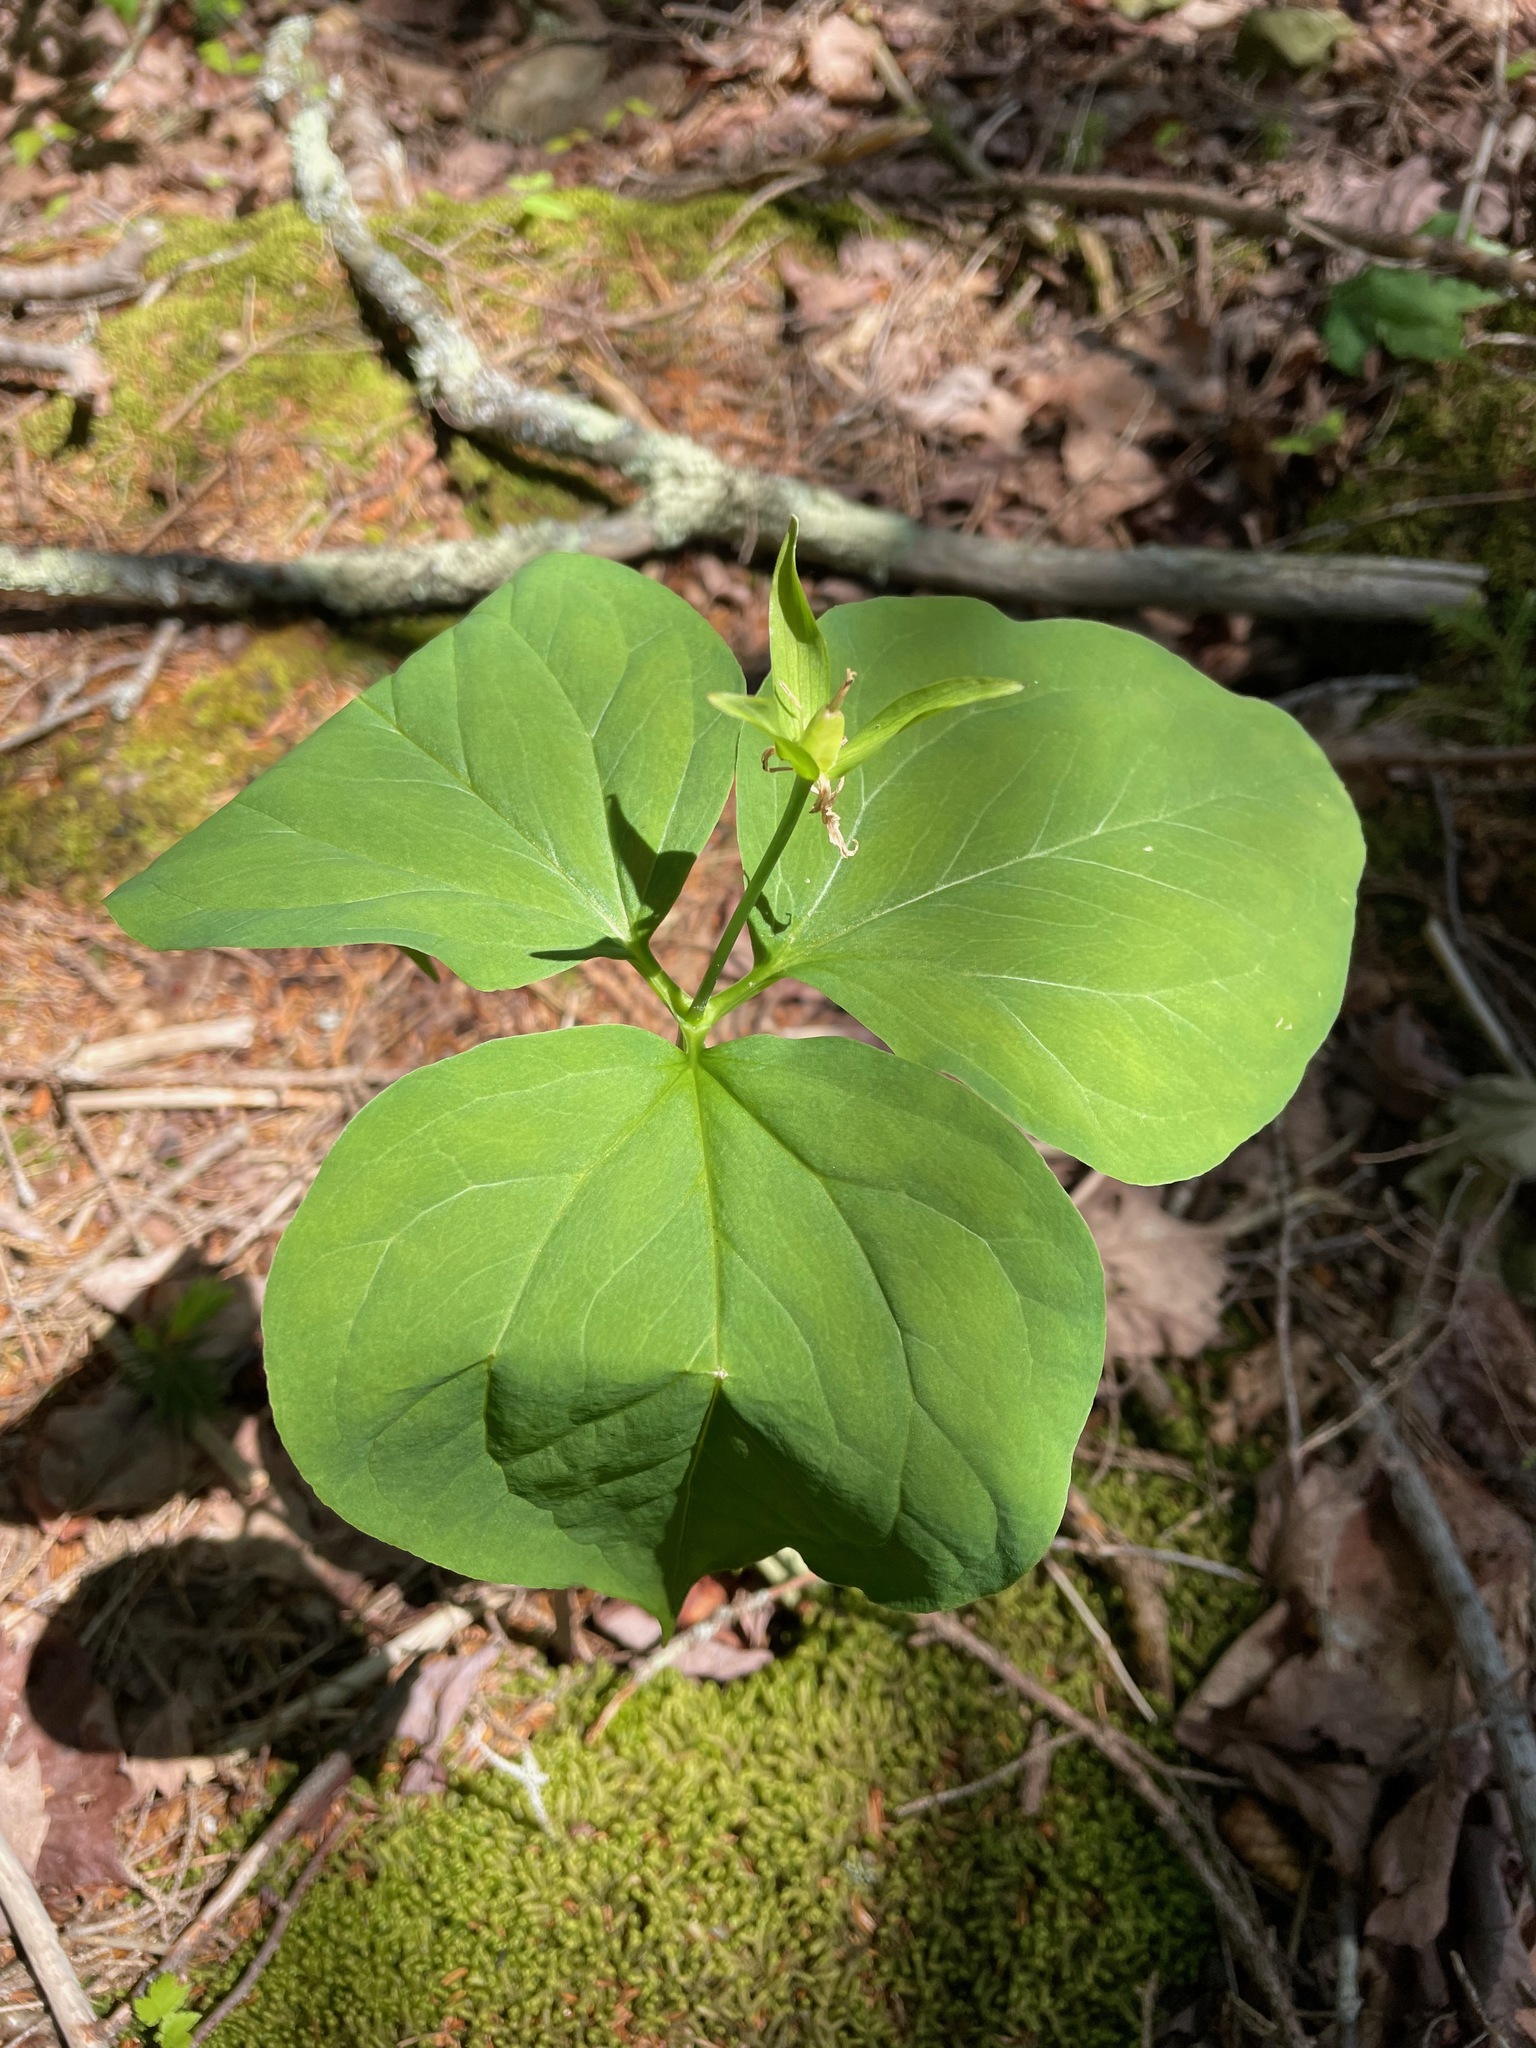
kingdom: Plantae
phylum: Tracheophyta
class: Liliopsida
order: Liliales
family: Melanthiaceae
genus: Trillium
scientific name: Trillium undulatum
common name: Paint trillium
